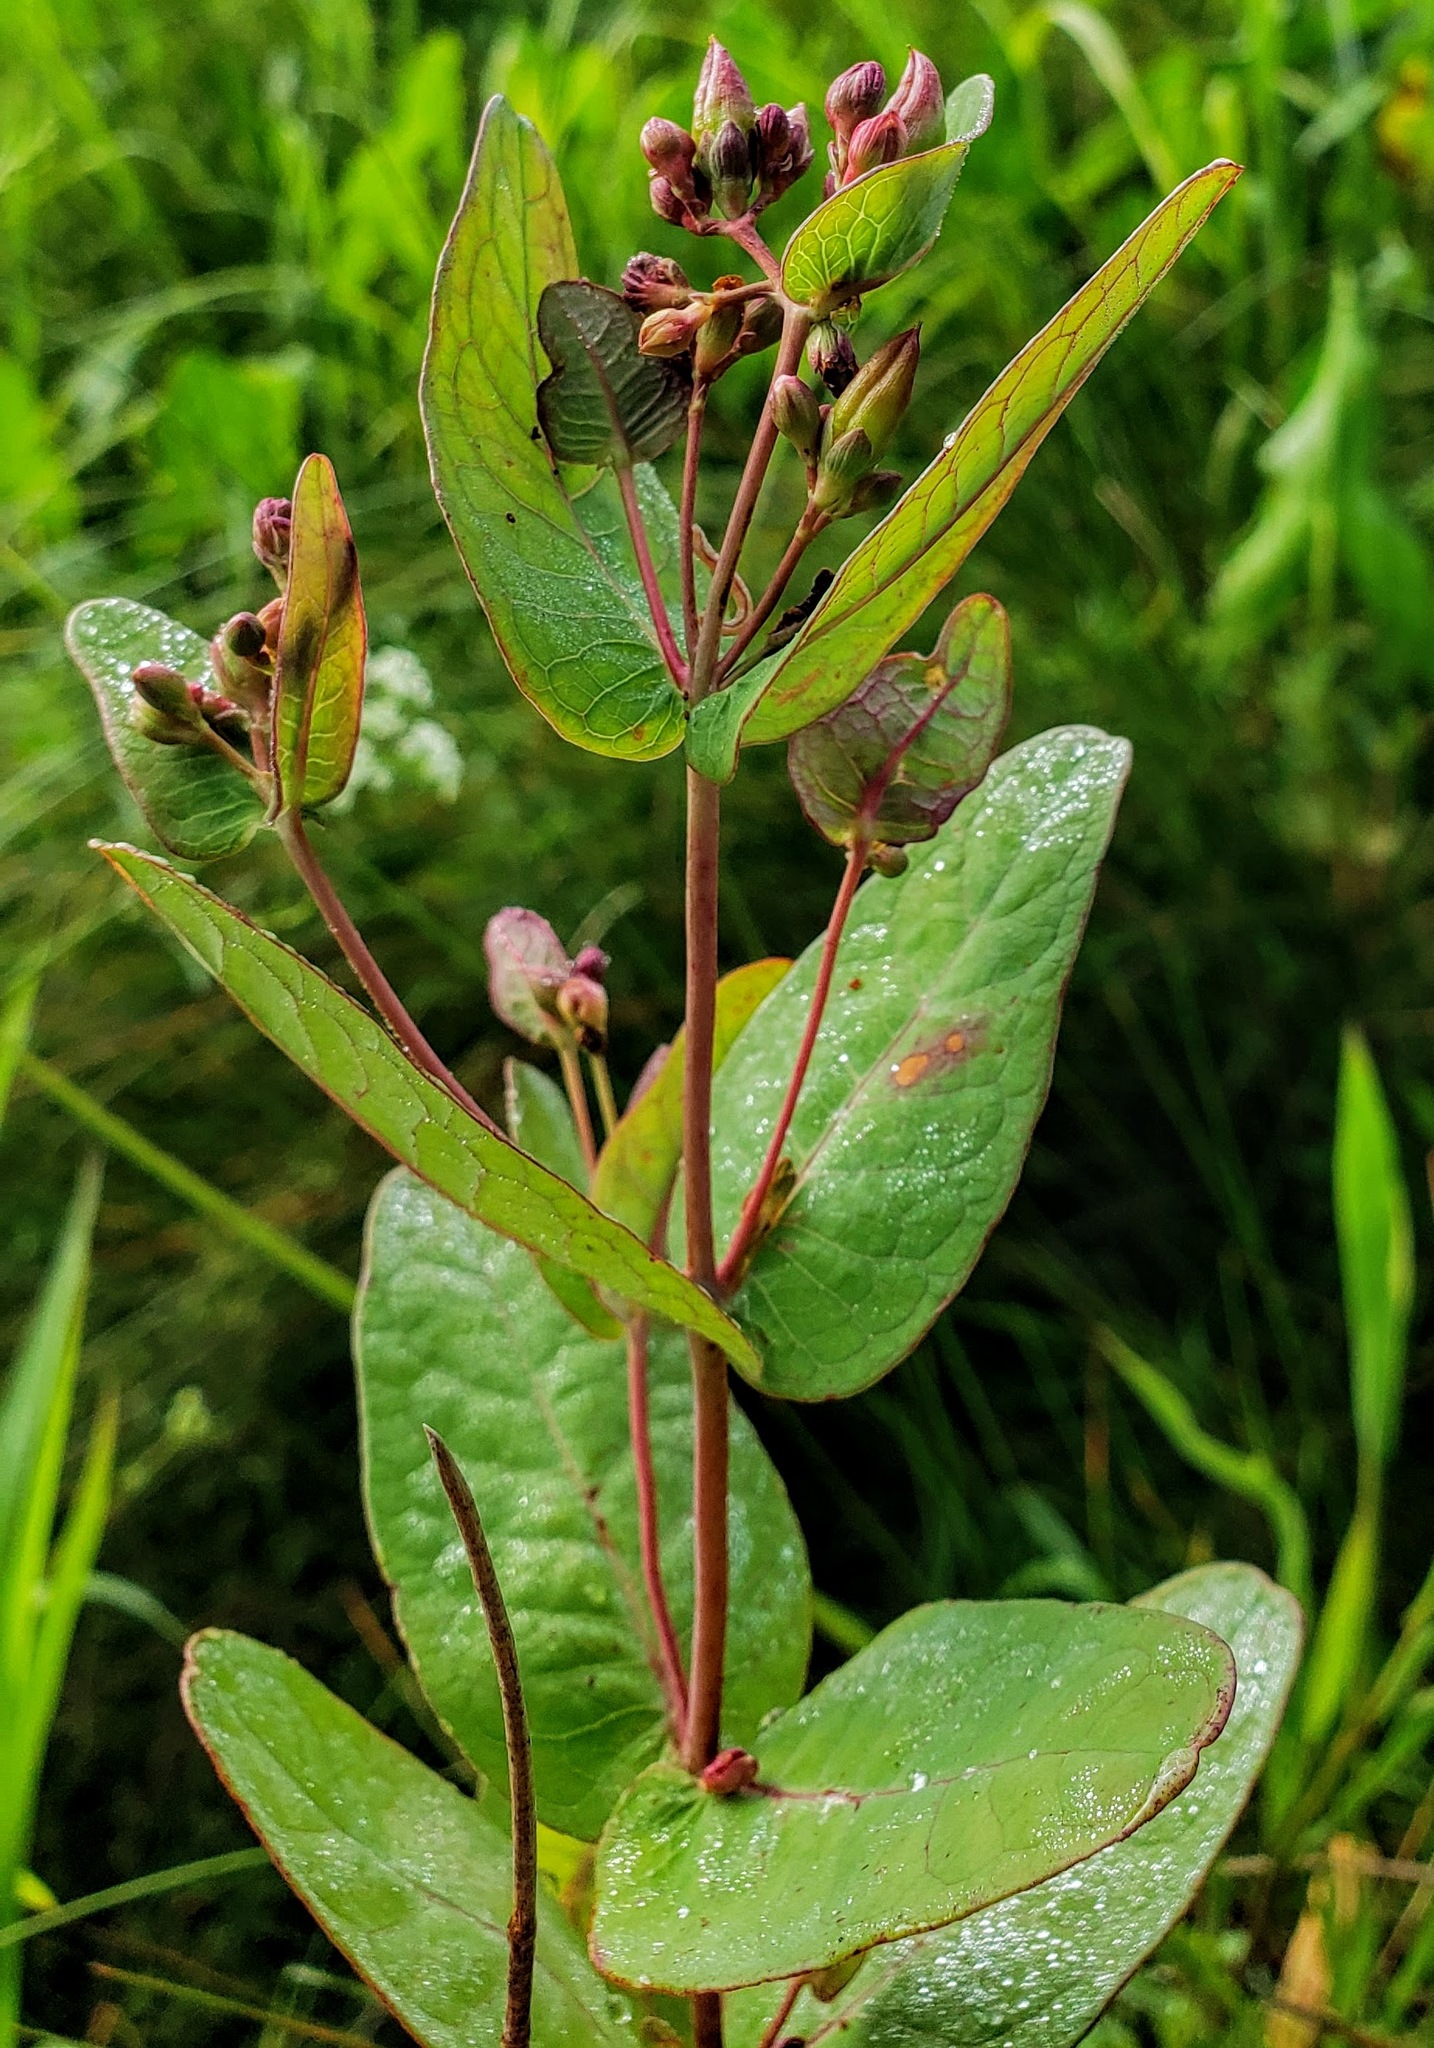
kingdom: Plantae
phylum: Tracheophyta
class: Magnoliopsida
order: Malpighiales
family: Hypericaceae
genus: Triadenum
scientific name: Triadenum fraseri
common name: Fraser's marsh st. johnswort
